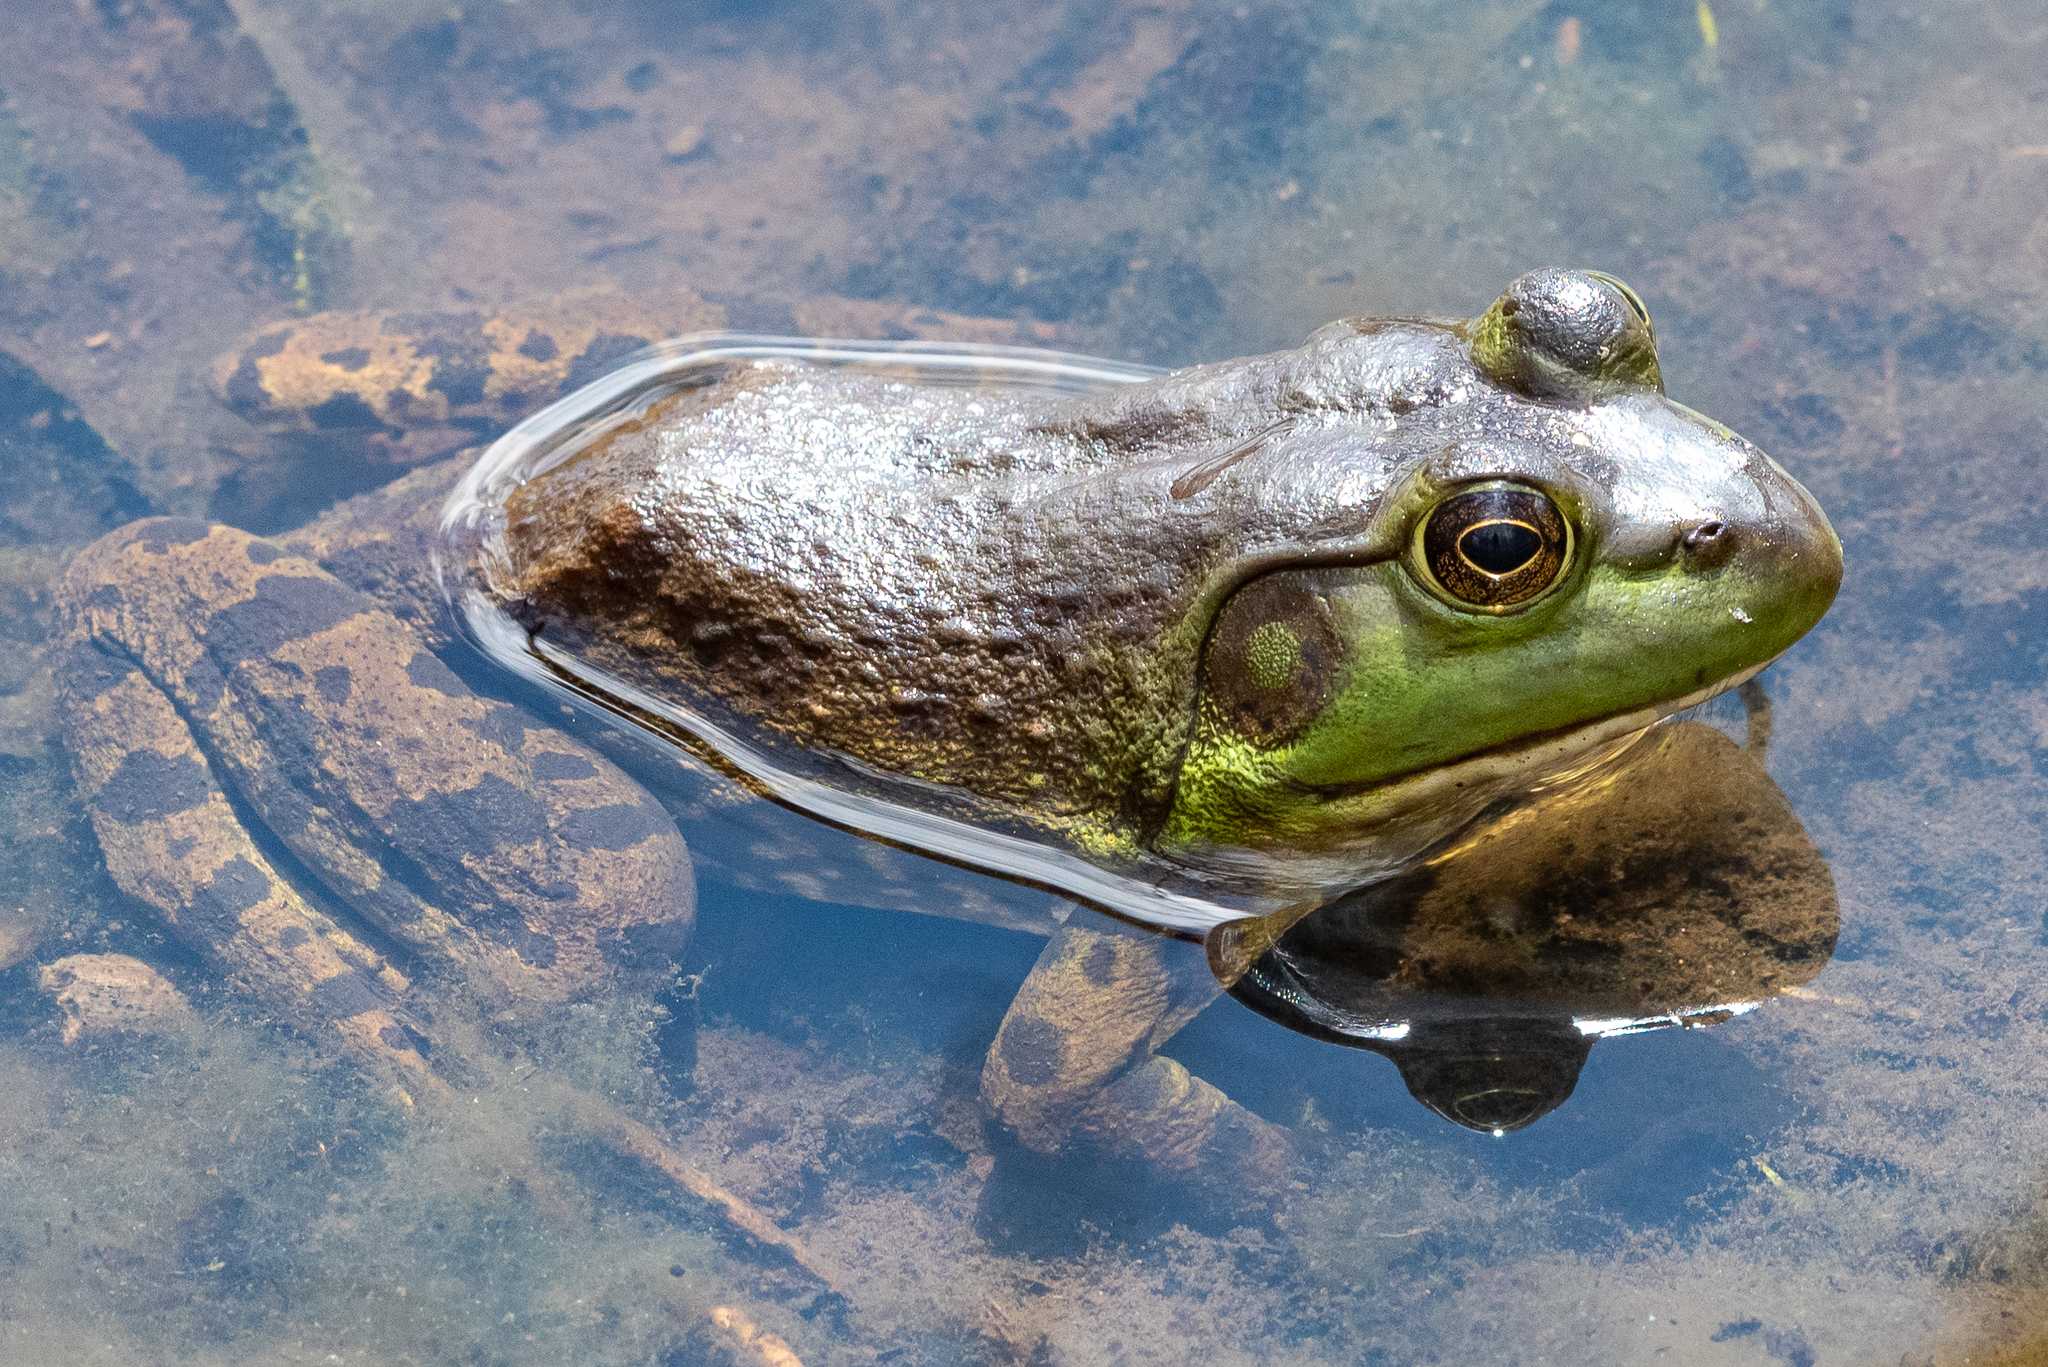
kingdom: Animalia
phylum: Chordata
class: Amphibia
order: Anura
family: Ranidae
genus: Lithobates
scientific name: Lithobates catesbeianus
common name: American bullfrog
